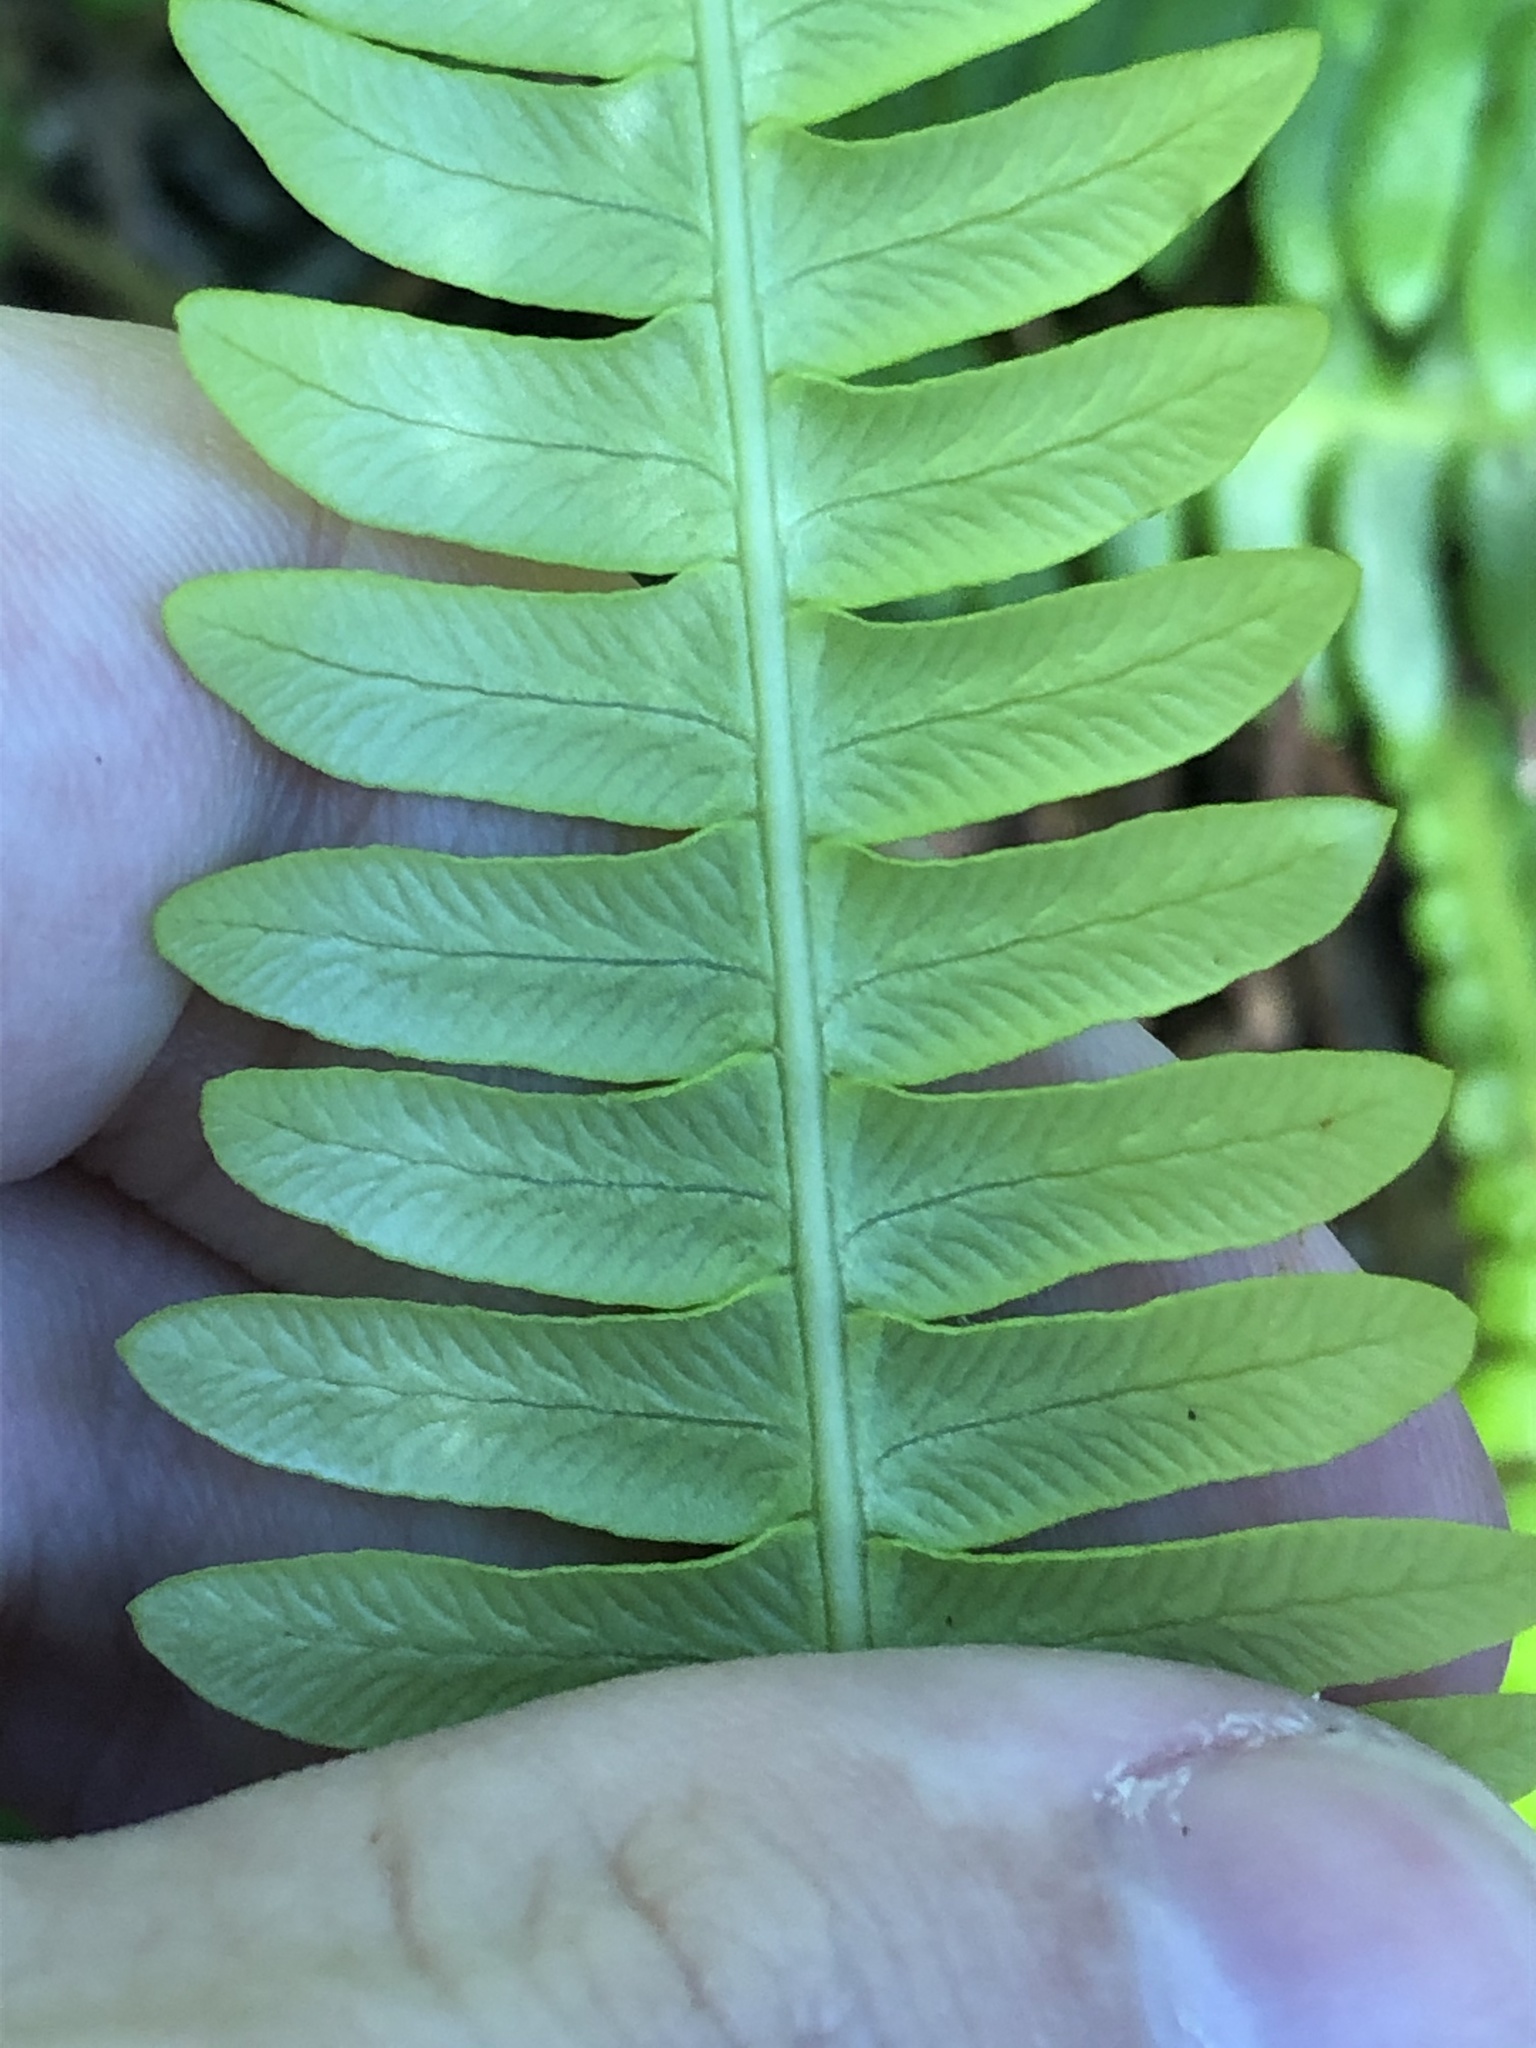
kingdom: Plantae
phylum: Tracheophyta
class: Polypodiopsida
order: Polypodiales
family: Blechnaceae
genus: Struthiopteris
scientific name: Struthiopteris spicant
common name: Deer fern
